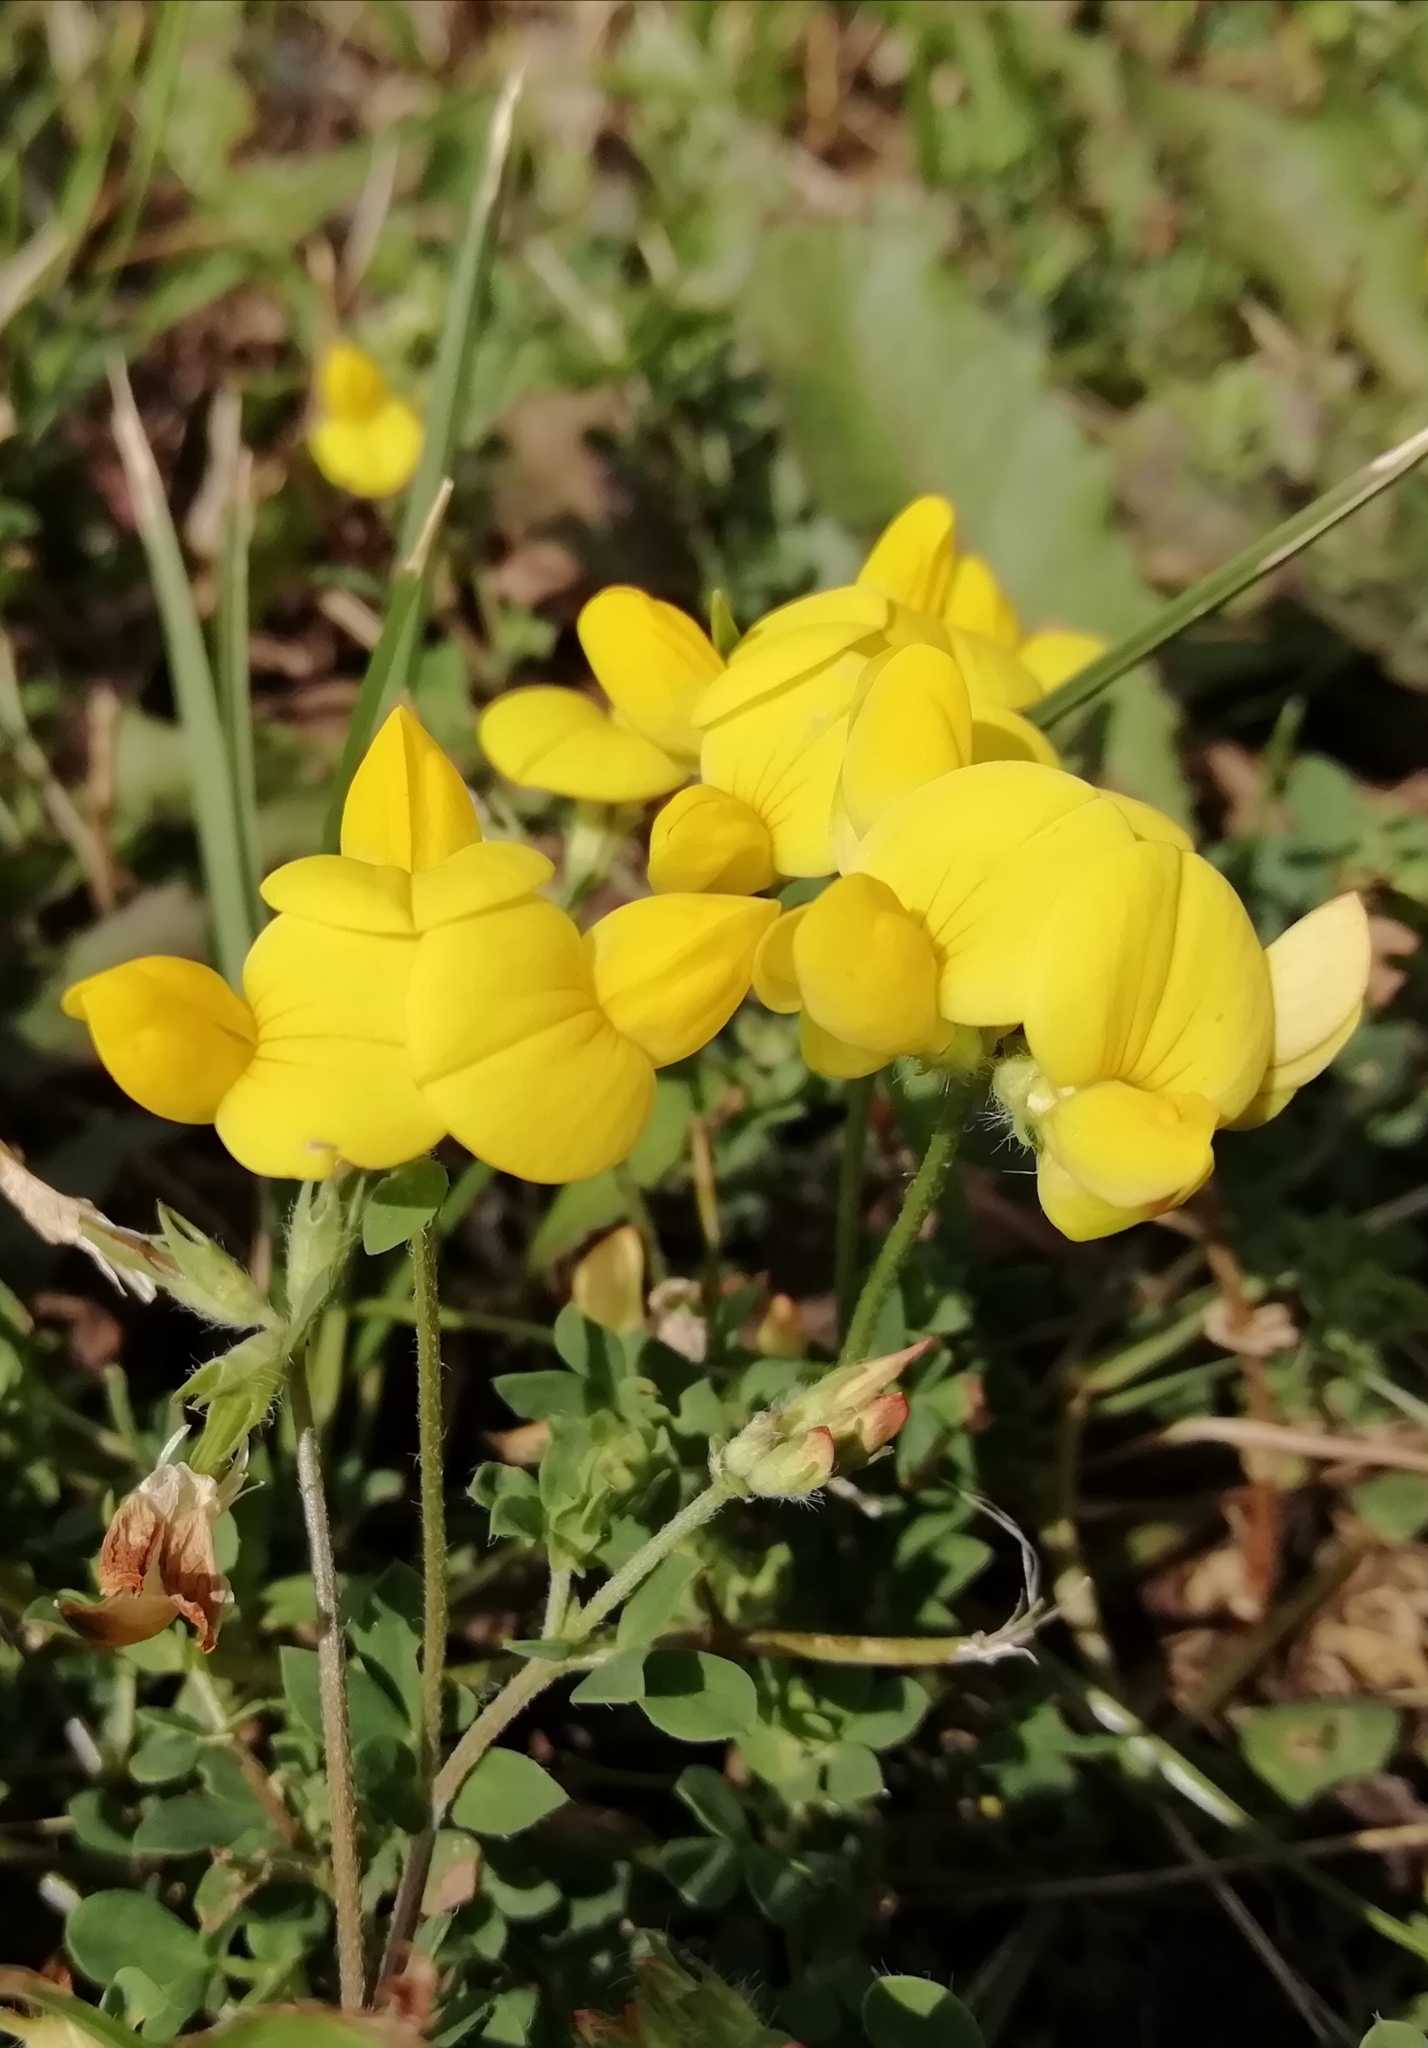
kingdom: Plantae
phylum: Tracheophyta
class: Magnoliopsida
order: Fabales
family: Fabaceae
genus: Lotus
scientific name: Lotus corniculatus
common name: Common bird's-foot-trefoil
